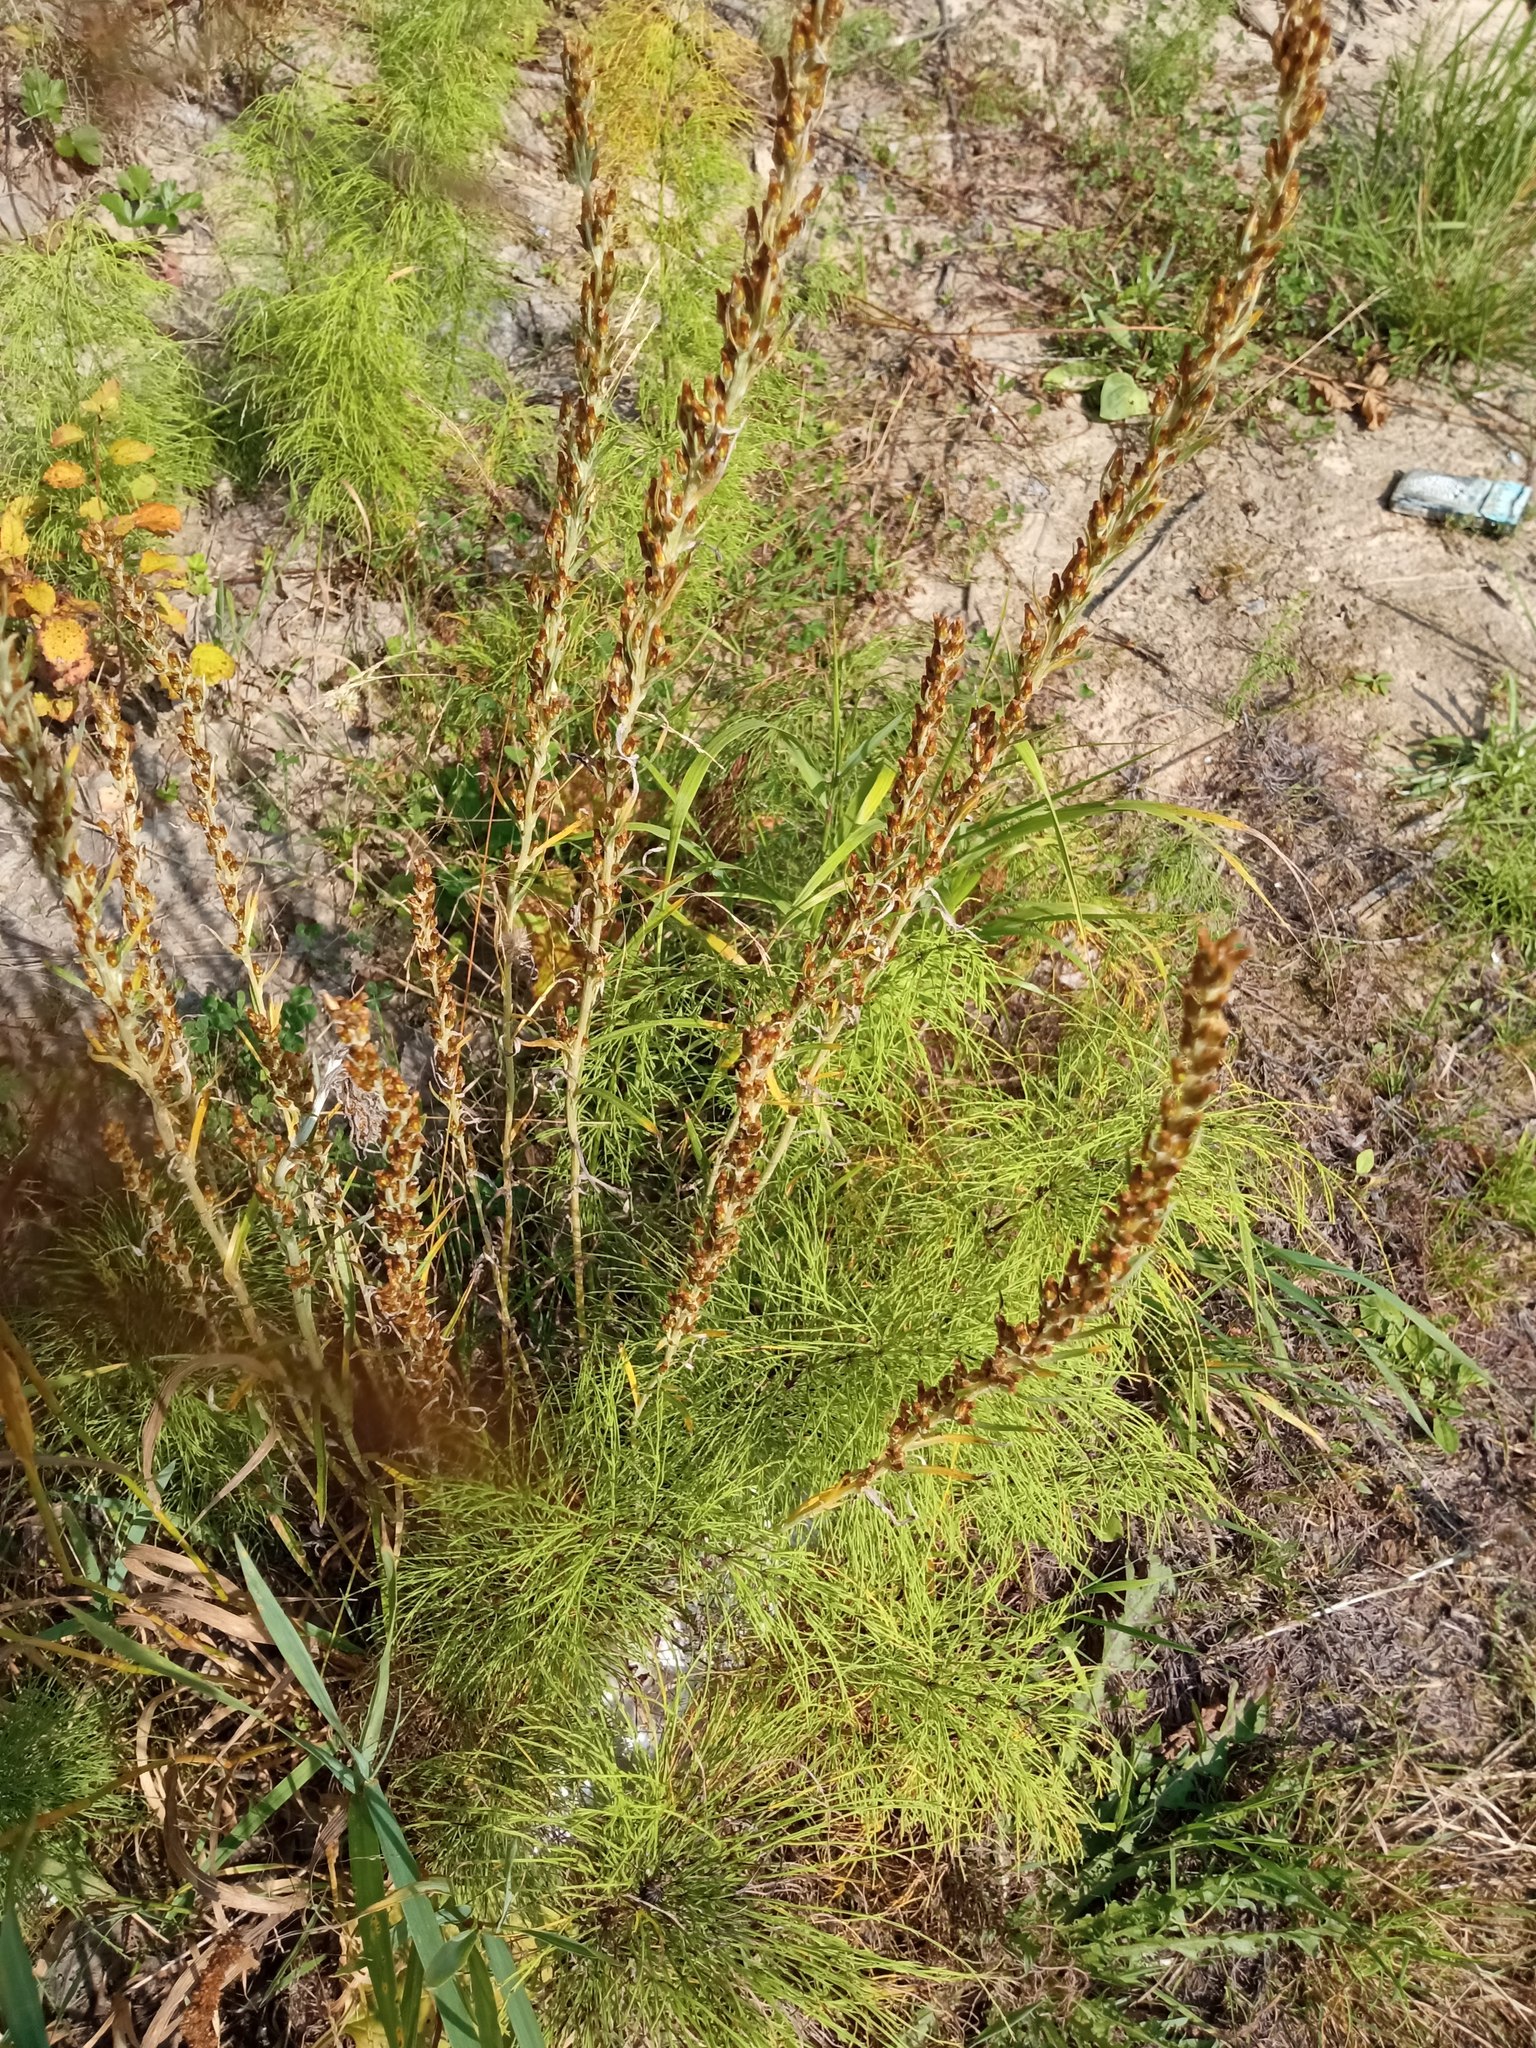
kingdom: Plantae
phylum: Tracheophyta
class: Magnoliopsida
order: Asterales
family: Asteraceae
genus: Omalotheca
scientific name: Omalotheca sylvatica
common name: Heath cudweed
